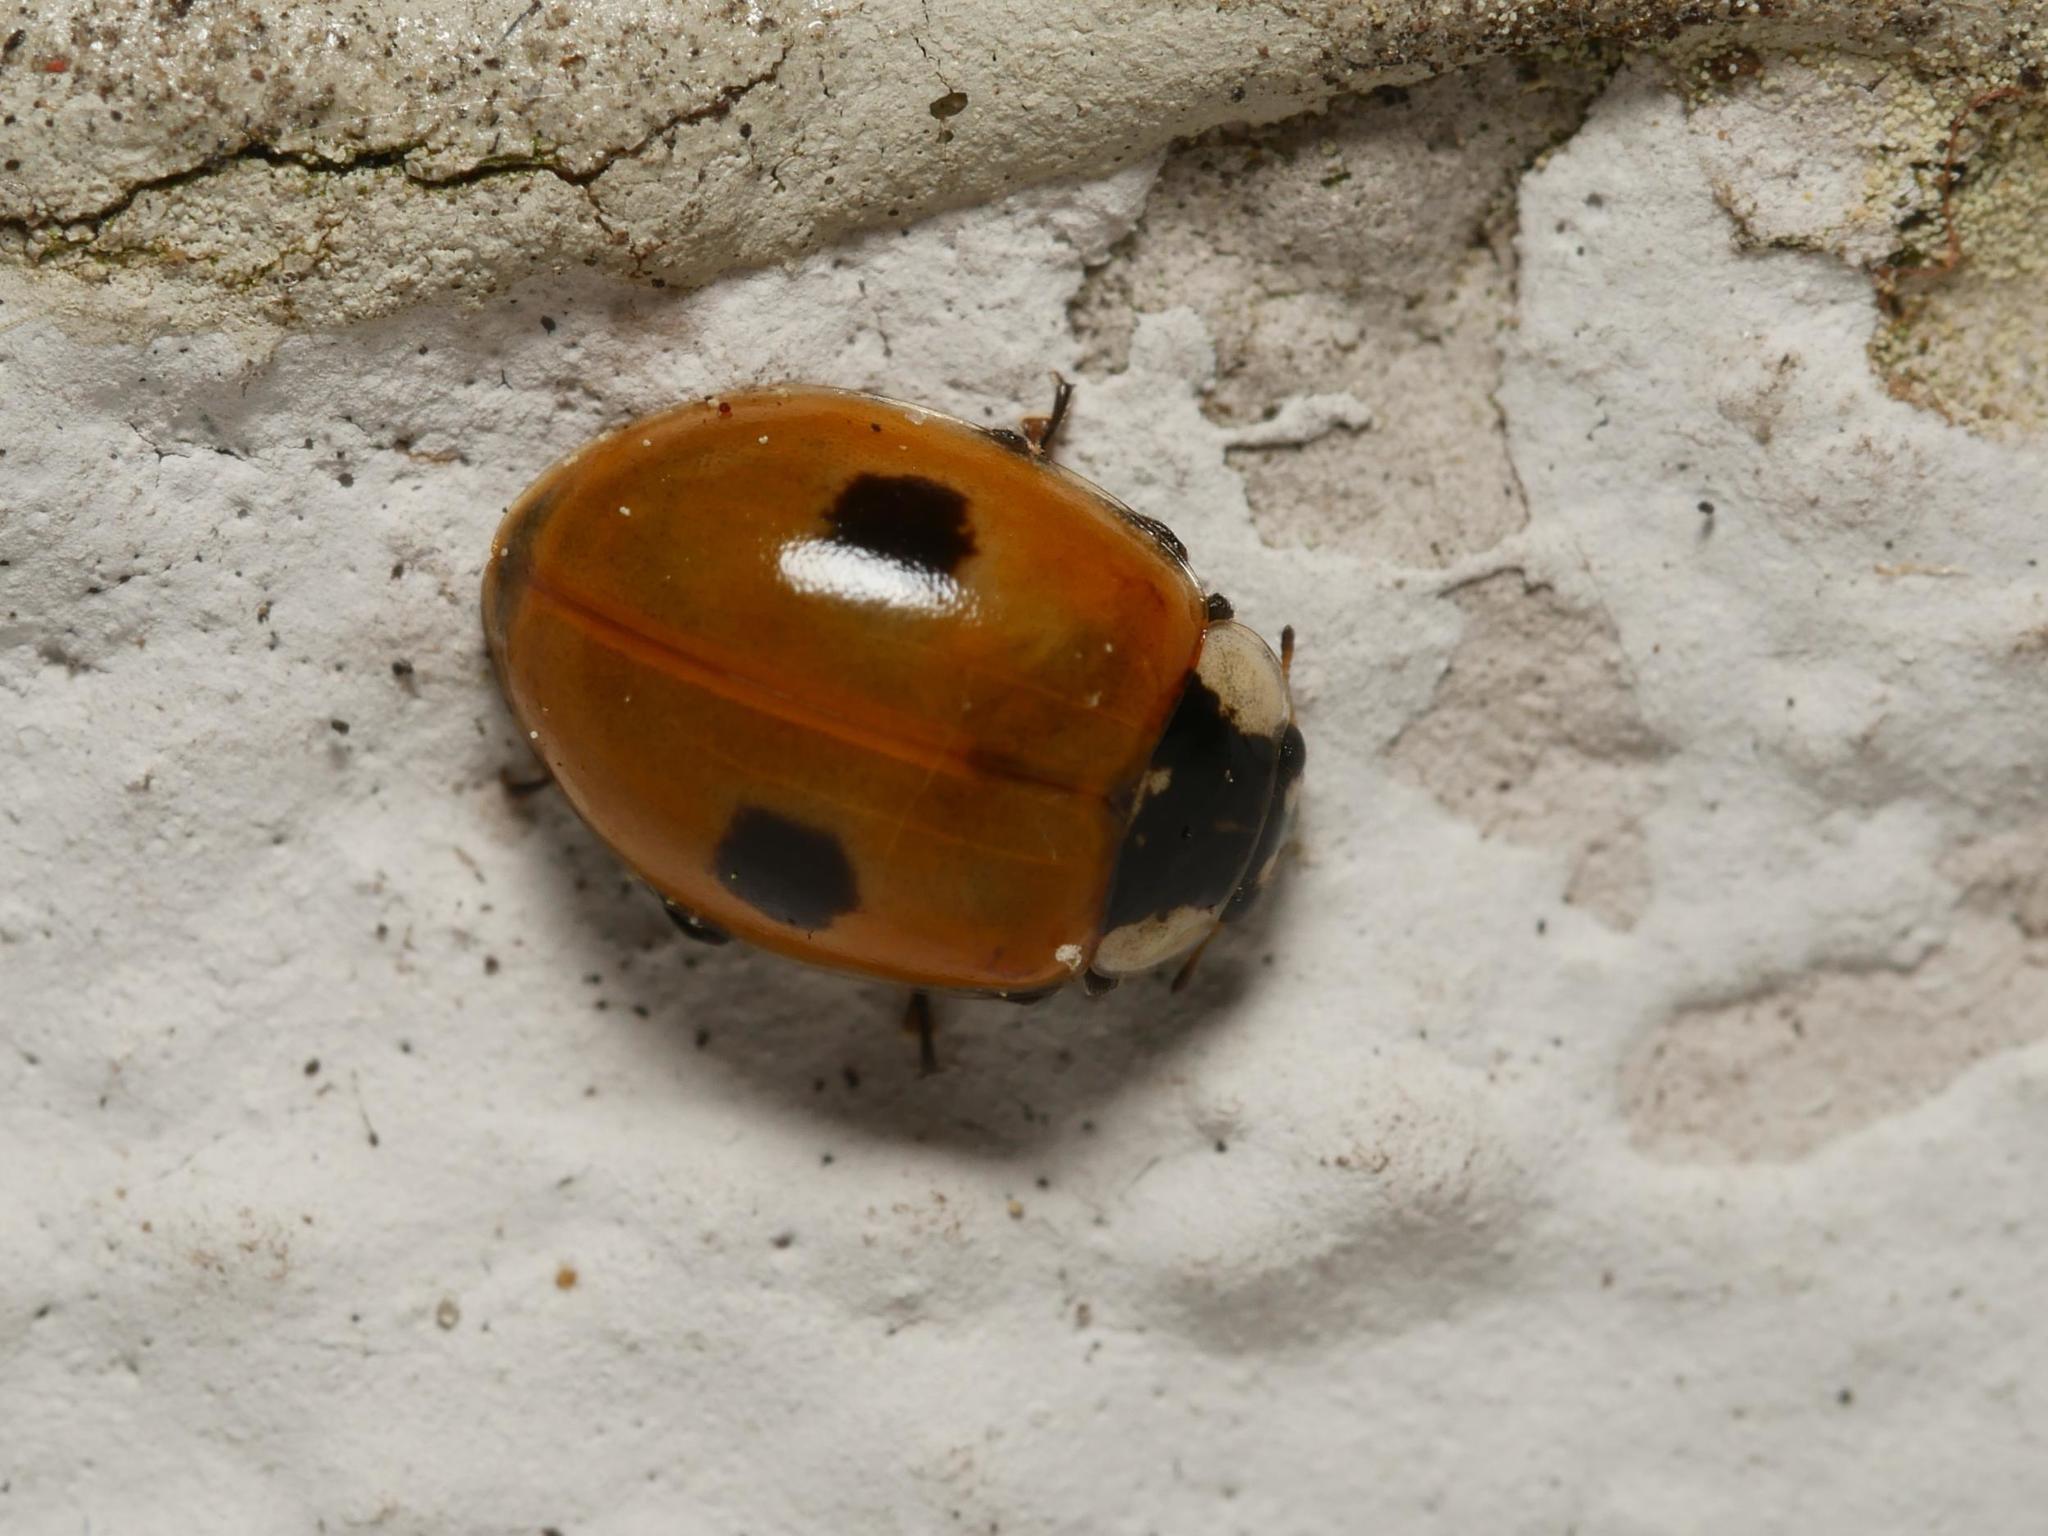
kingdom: Animalia
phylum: Arthropoda
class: Insecta
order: Coleoptera
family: Coccinellidae
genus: Adalia
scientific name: Adalia bipunctata
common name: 2-spot ladybird
